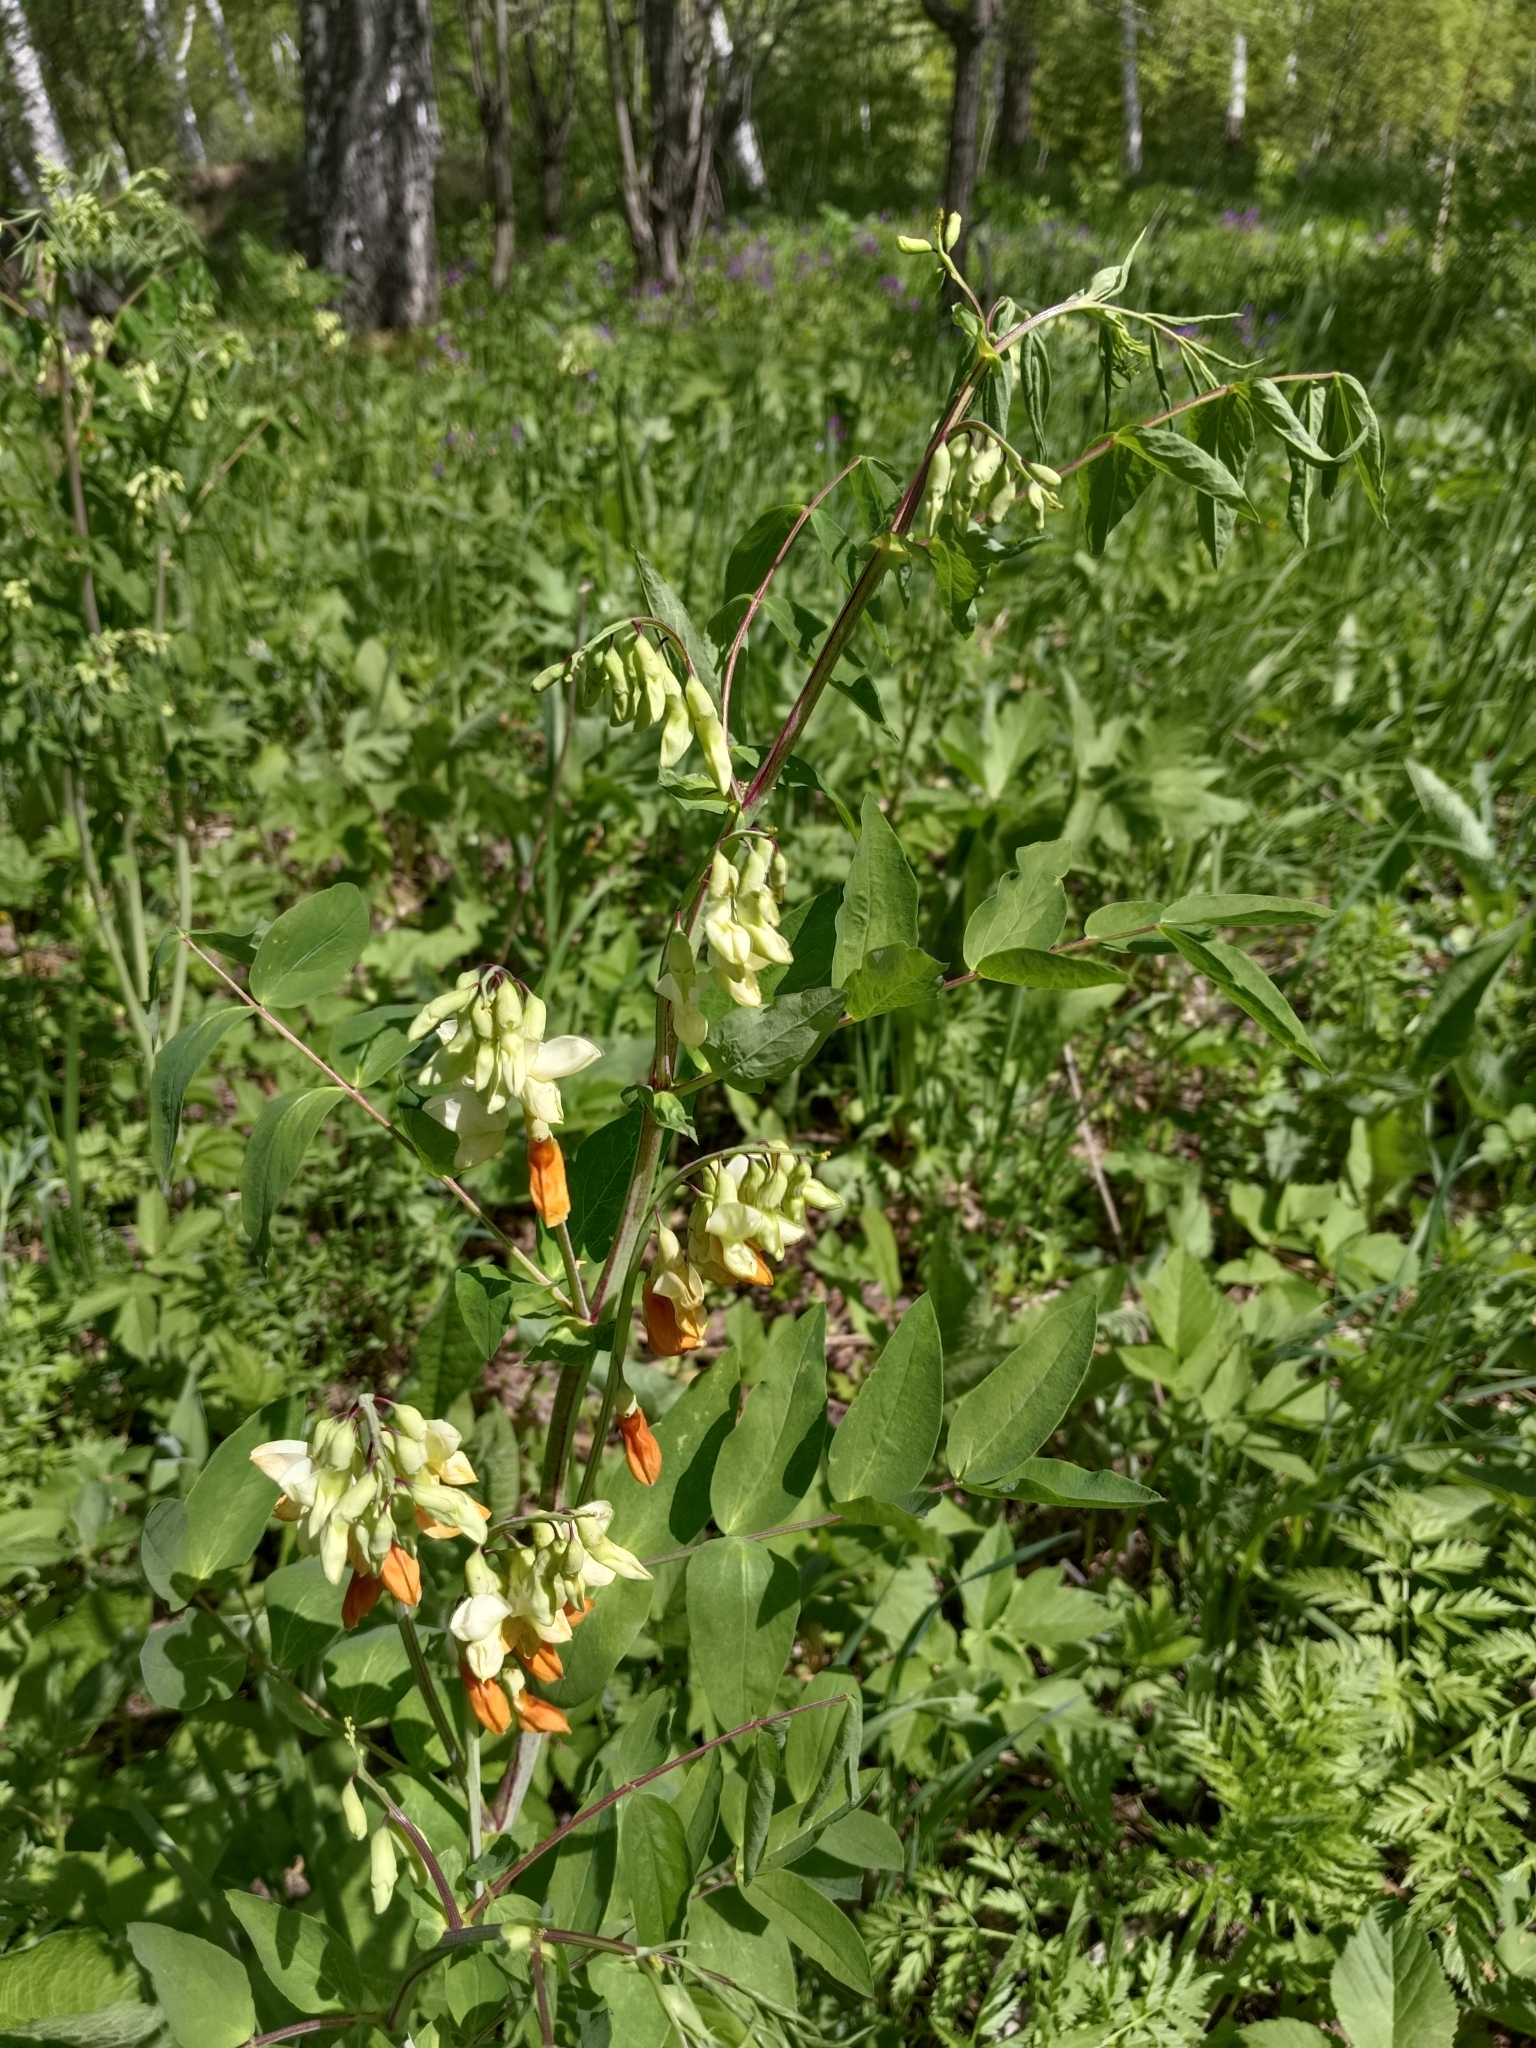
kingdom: Plantae
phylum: Tracheophyta
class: Magnoliopsida
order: Fabales
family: Fabaceae
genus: Lathyrus
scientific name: Lathyrus gmelinii
